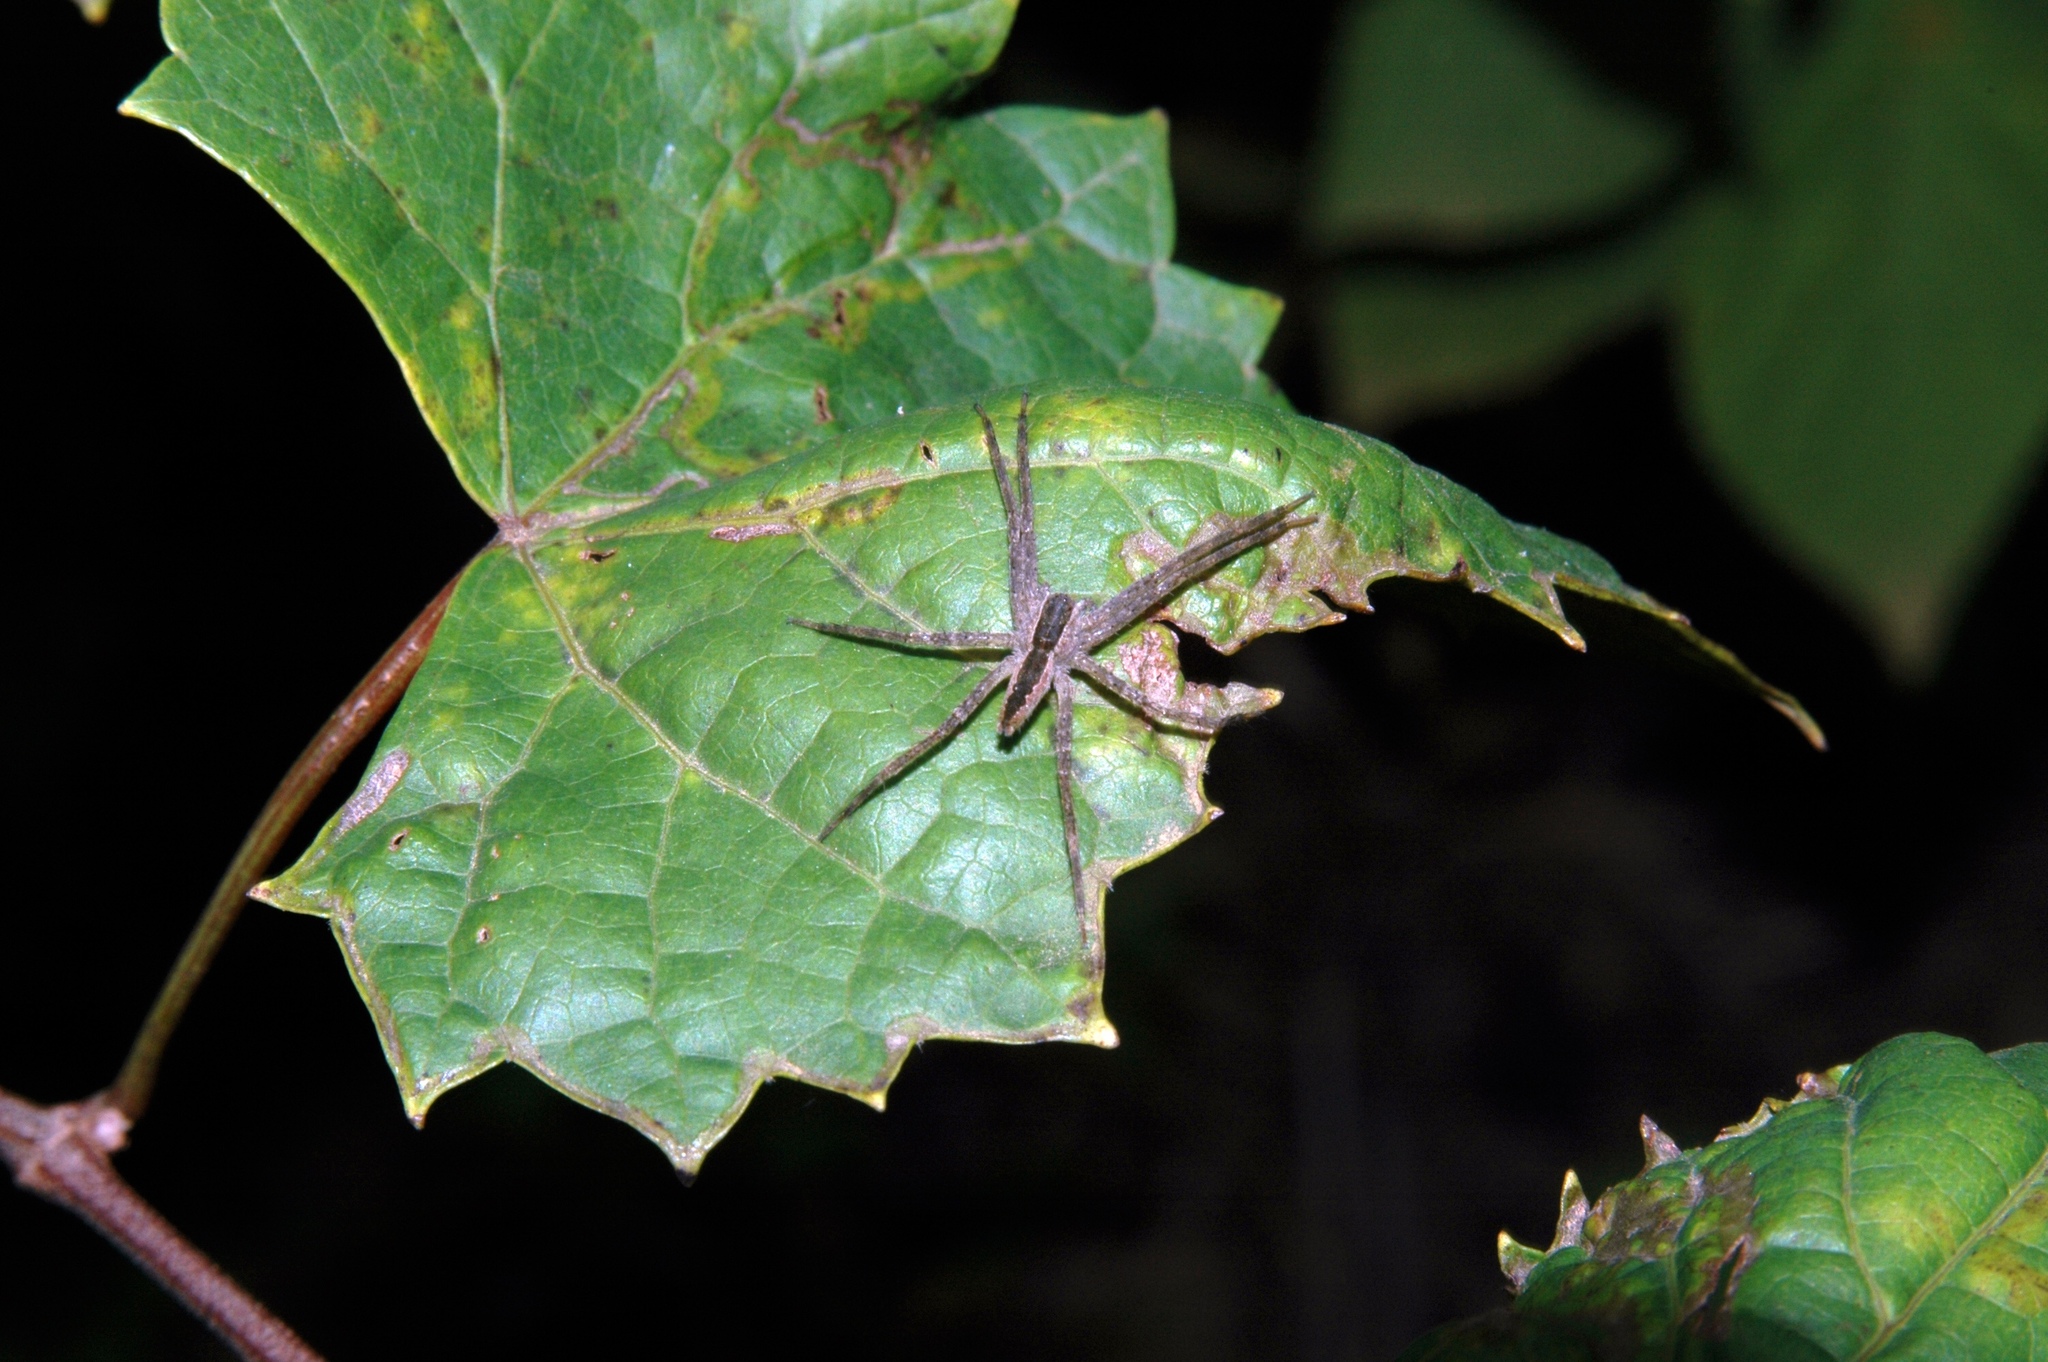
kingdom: Animalia
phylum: Arthropoda
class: Arachnida
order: Araneae
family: Pisauridae
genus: Pisaurina
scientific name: Pisaurina mira
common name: American nursery web spider
